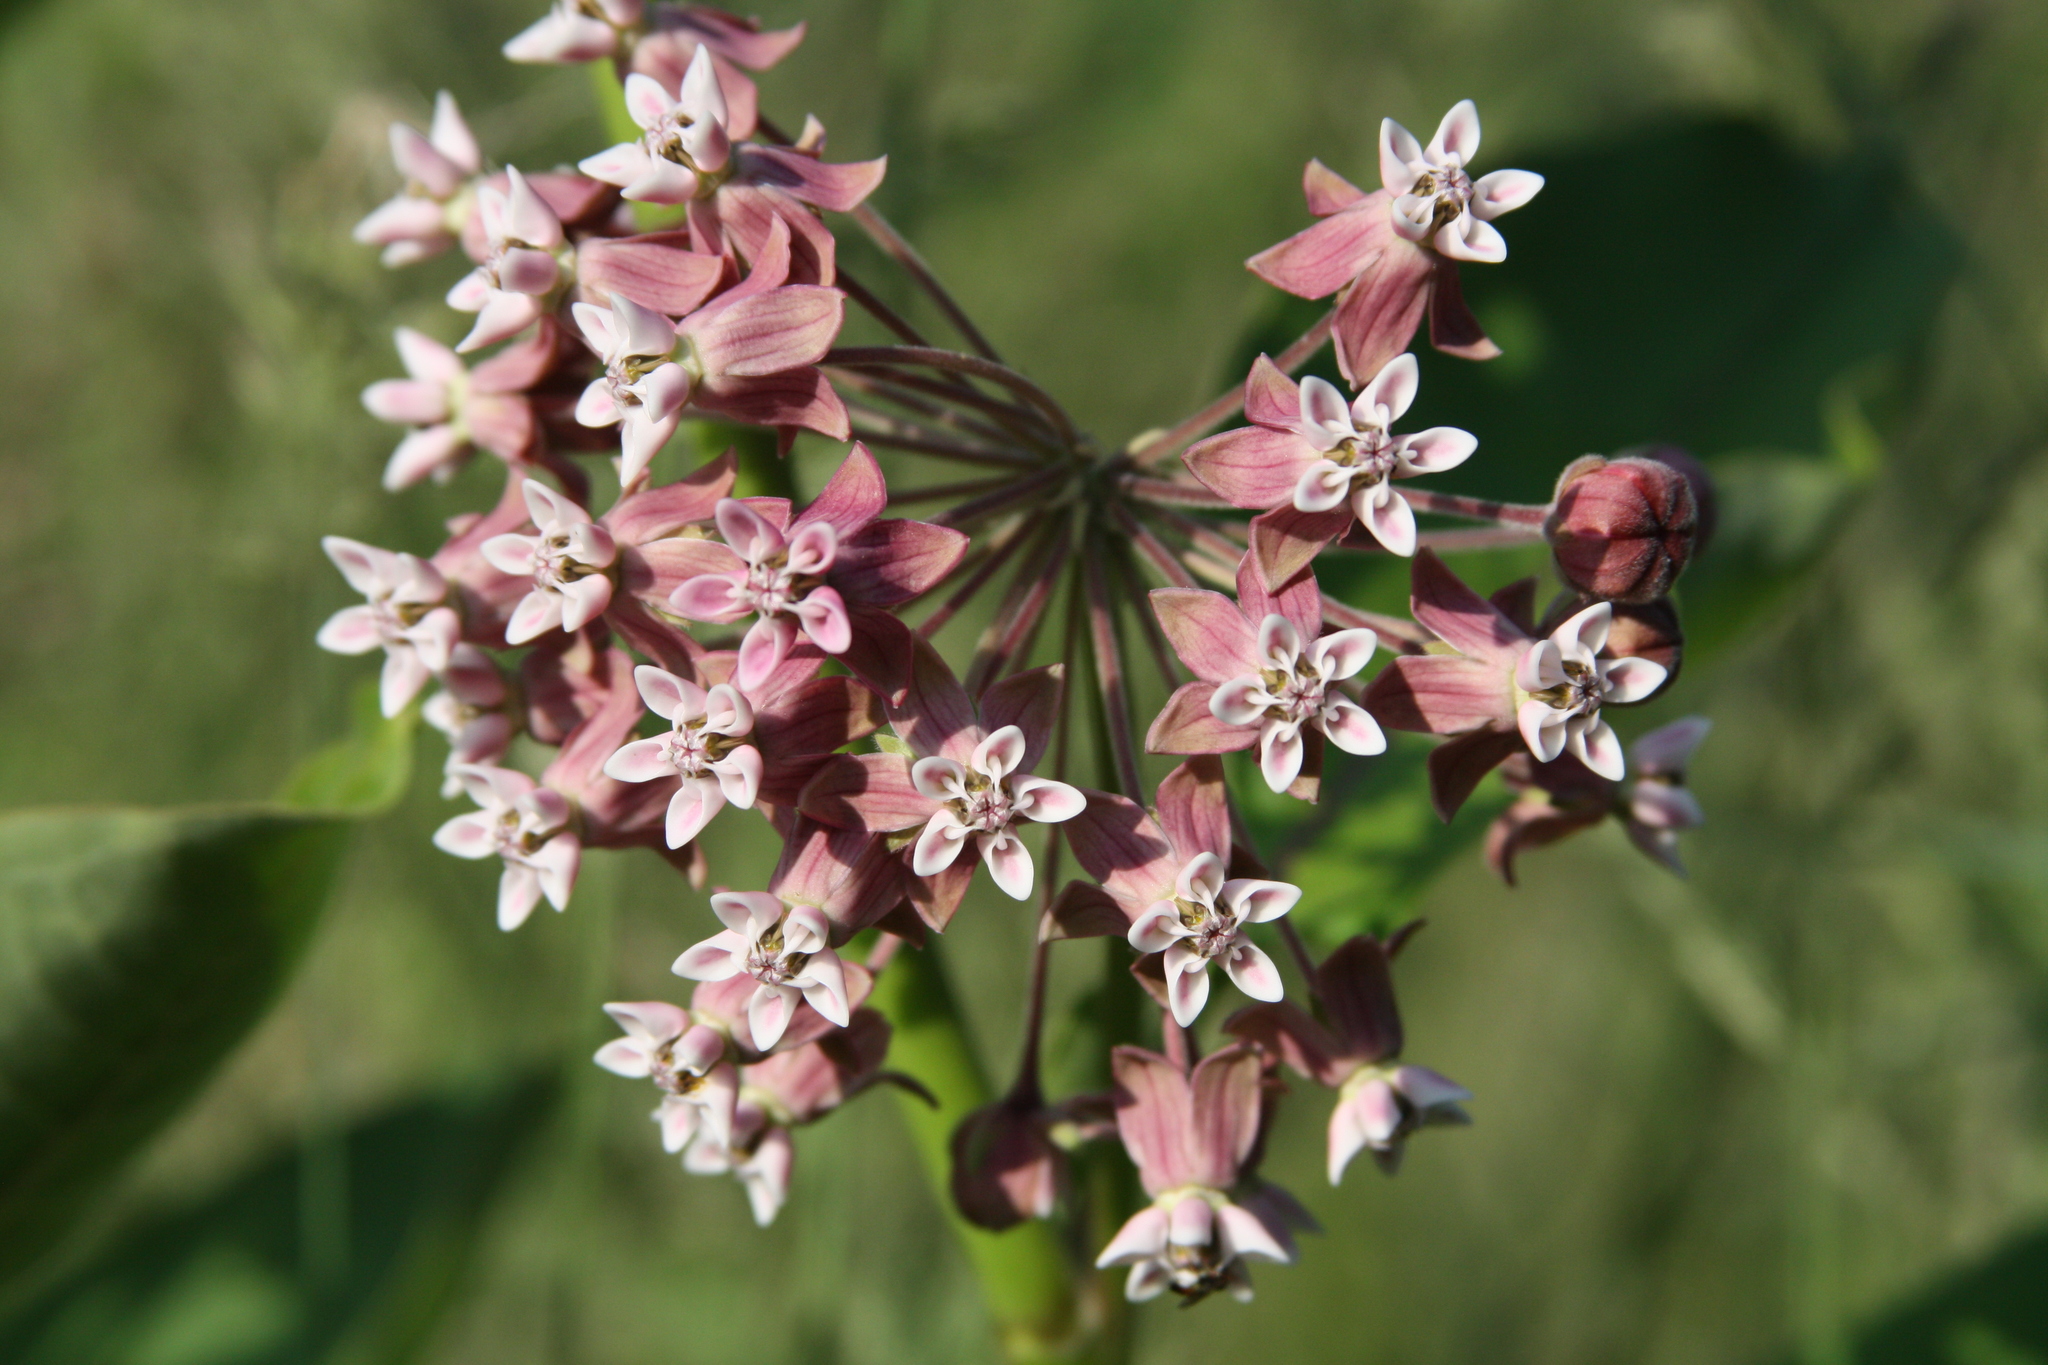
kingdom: Plantae
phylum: Tracheophyta
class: Magnoliopsida
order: Gentianales
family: Apocynaceae
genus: Asclepias
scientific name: Asclepias syriaca
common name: Common milkweed
